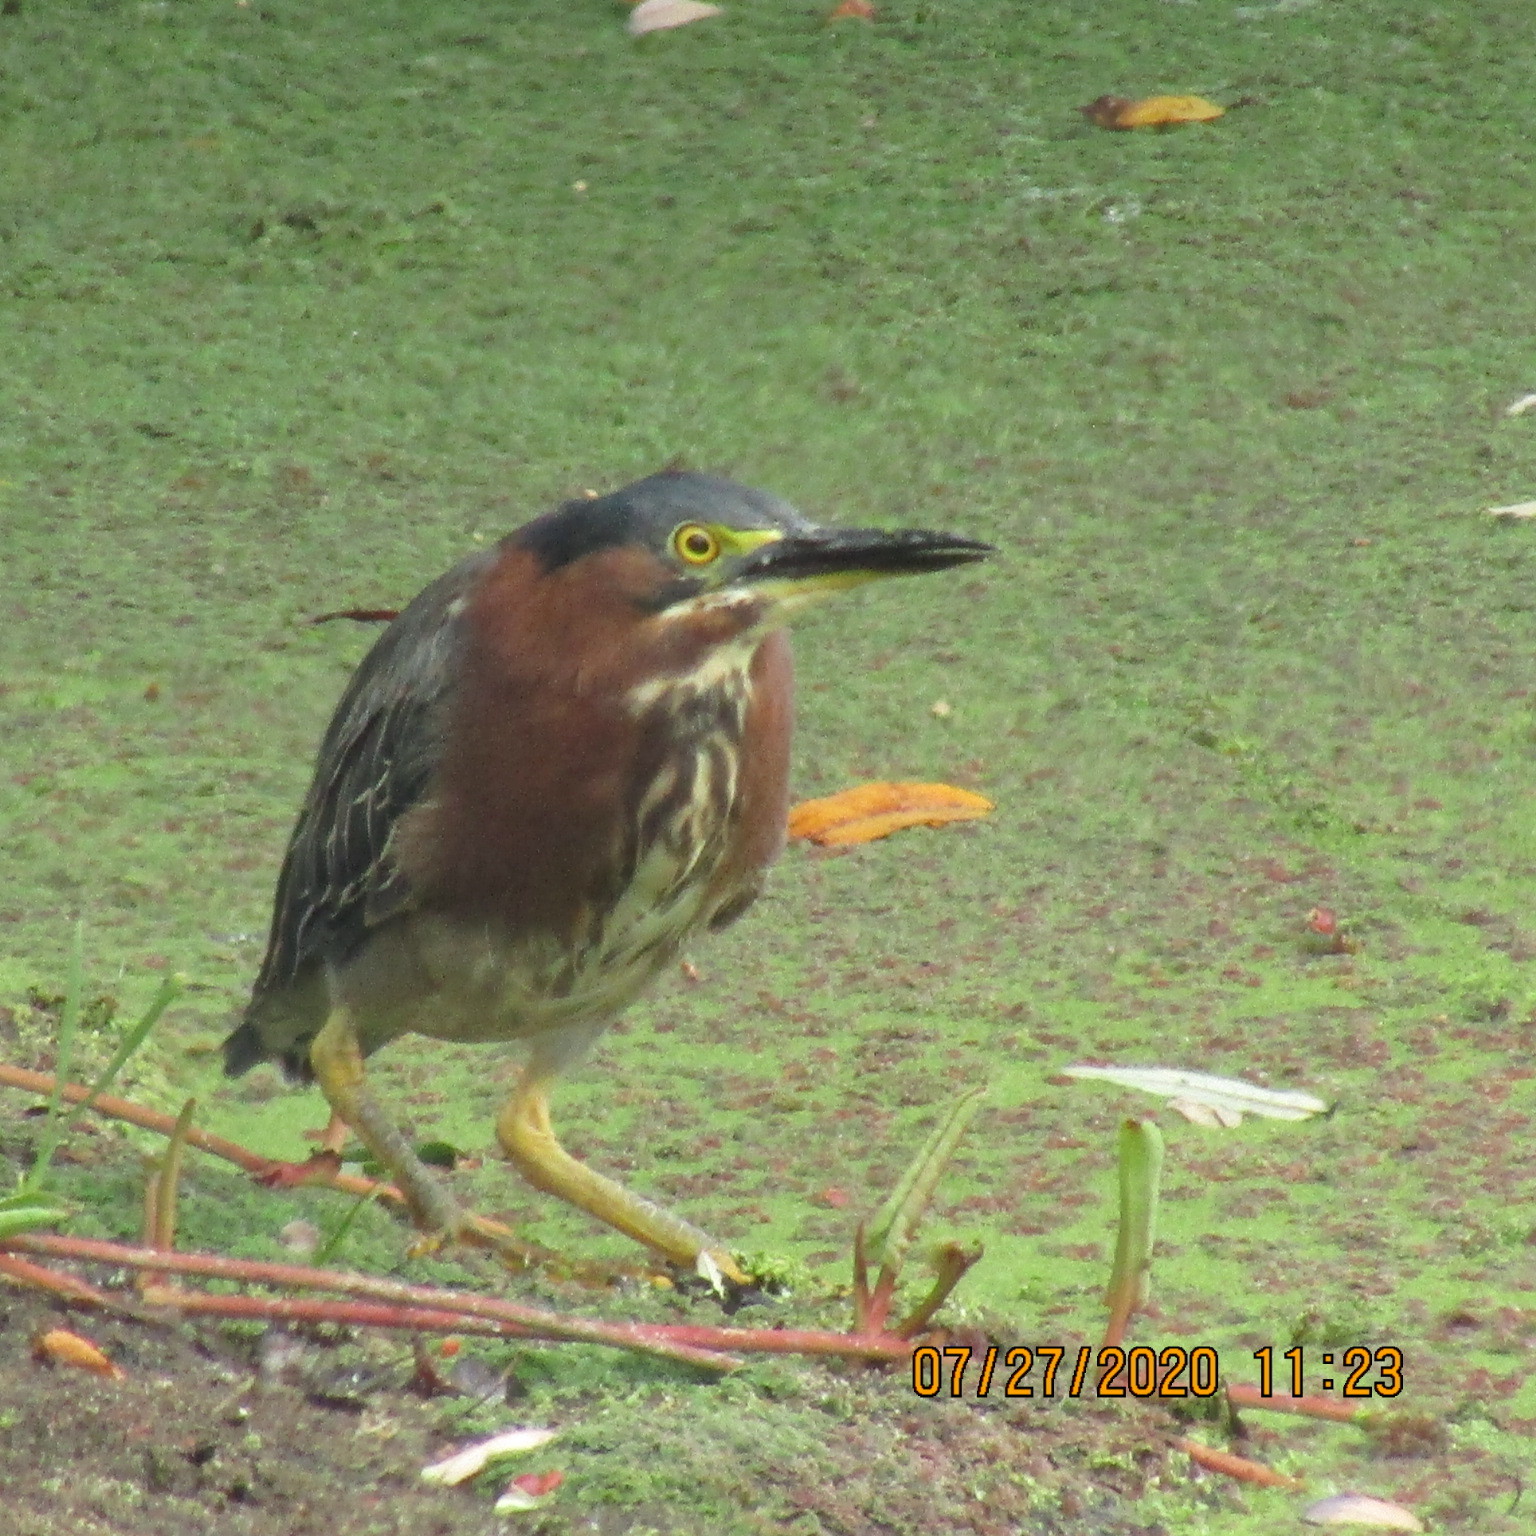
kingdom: Animalia
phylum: Chordata
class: Aves
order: Pelecaniformes
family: Ardeidae
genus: Butorides
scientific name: Butorides virescens
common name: Green heron
